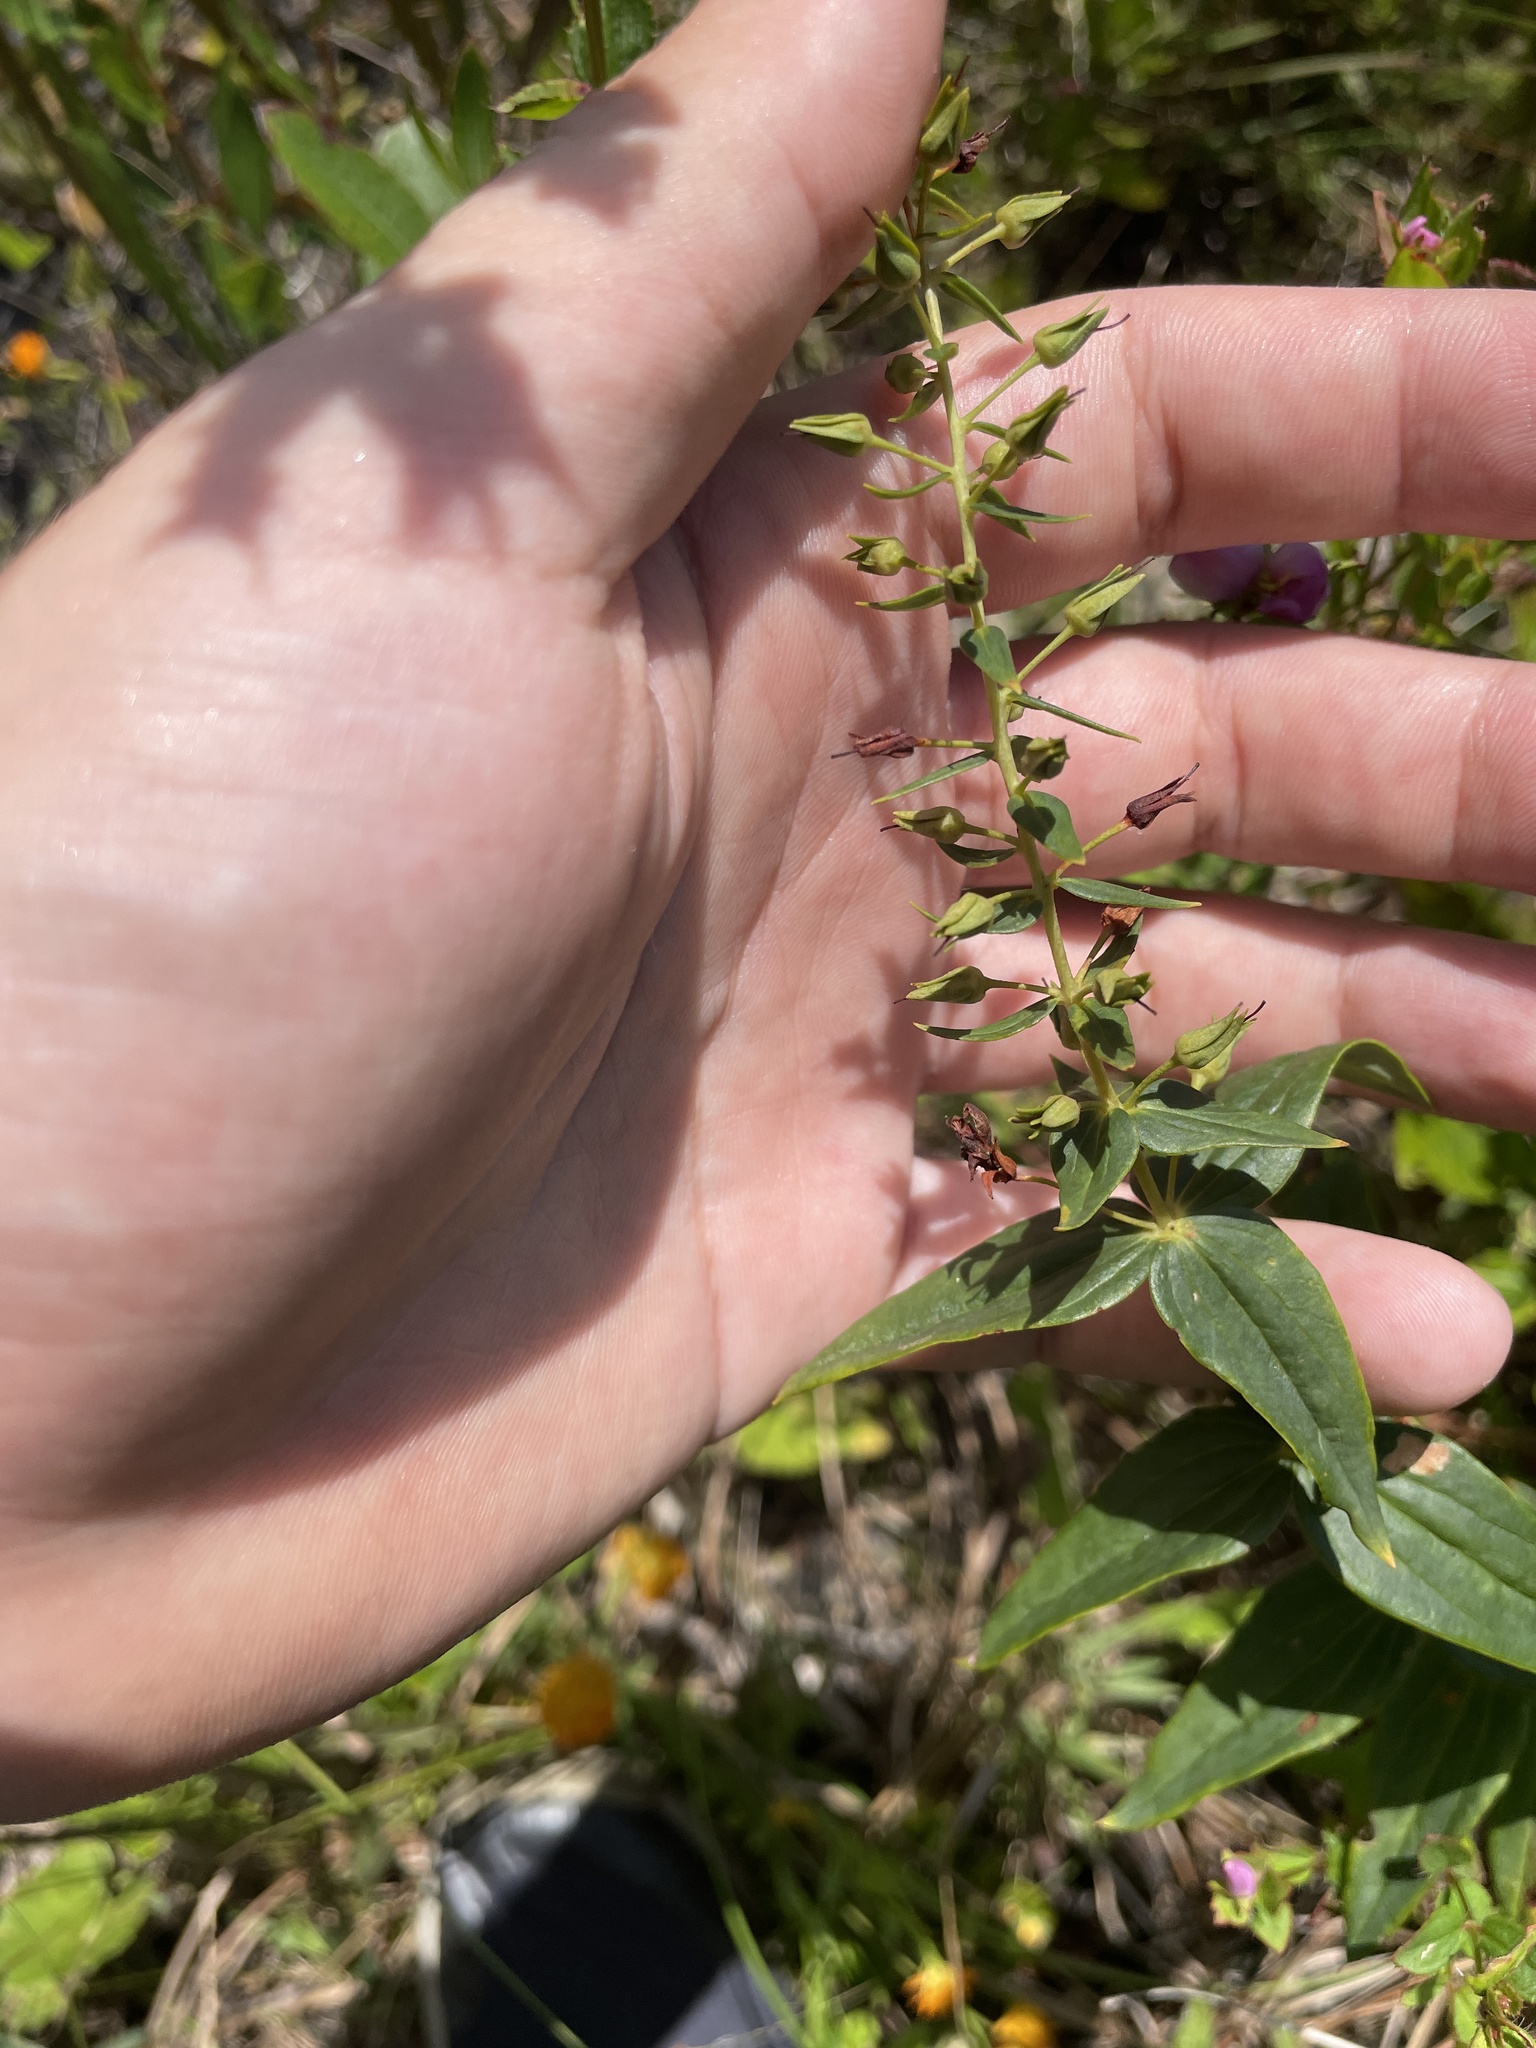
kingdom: Plantae
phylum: Tracheophyta
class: Magnoliopsida
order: Ericales
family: Primulaceae
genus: Lysimachia
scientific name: Lysimachia asperulifolia
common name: Rough-leaf loosestrife
